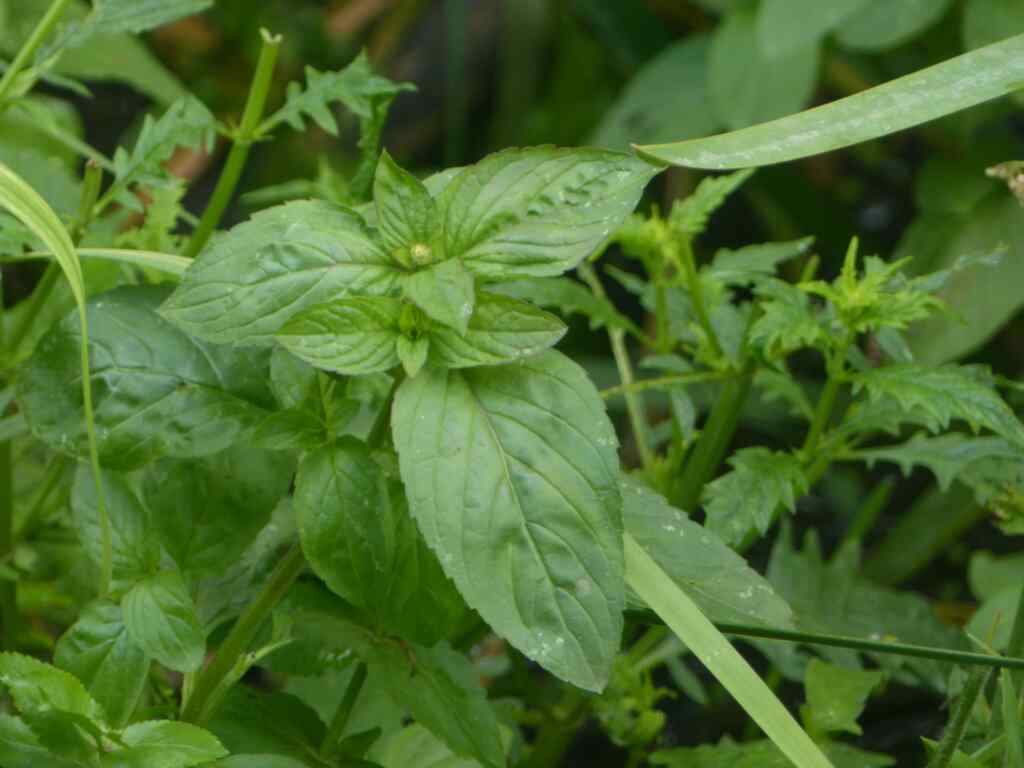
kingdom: Plantae
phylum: Tracheophyta
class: Magnoliopsida
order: Lamiales
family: Lamiaceae
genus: Mentha
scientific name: Mentha aquatica
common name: Water mint
